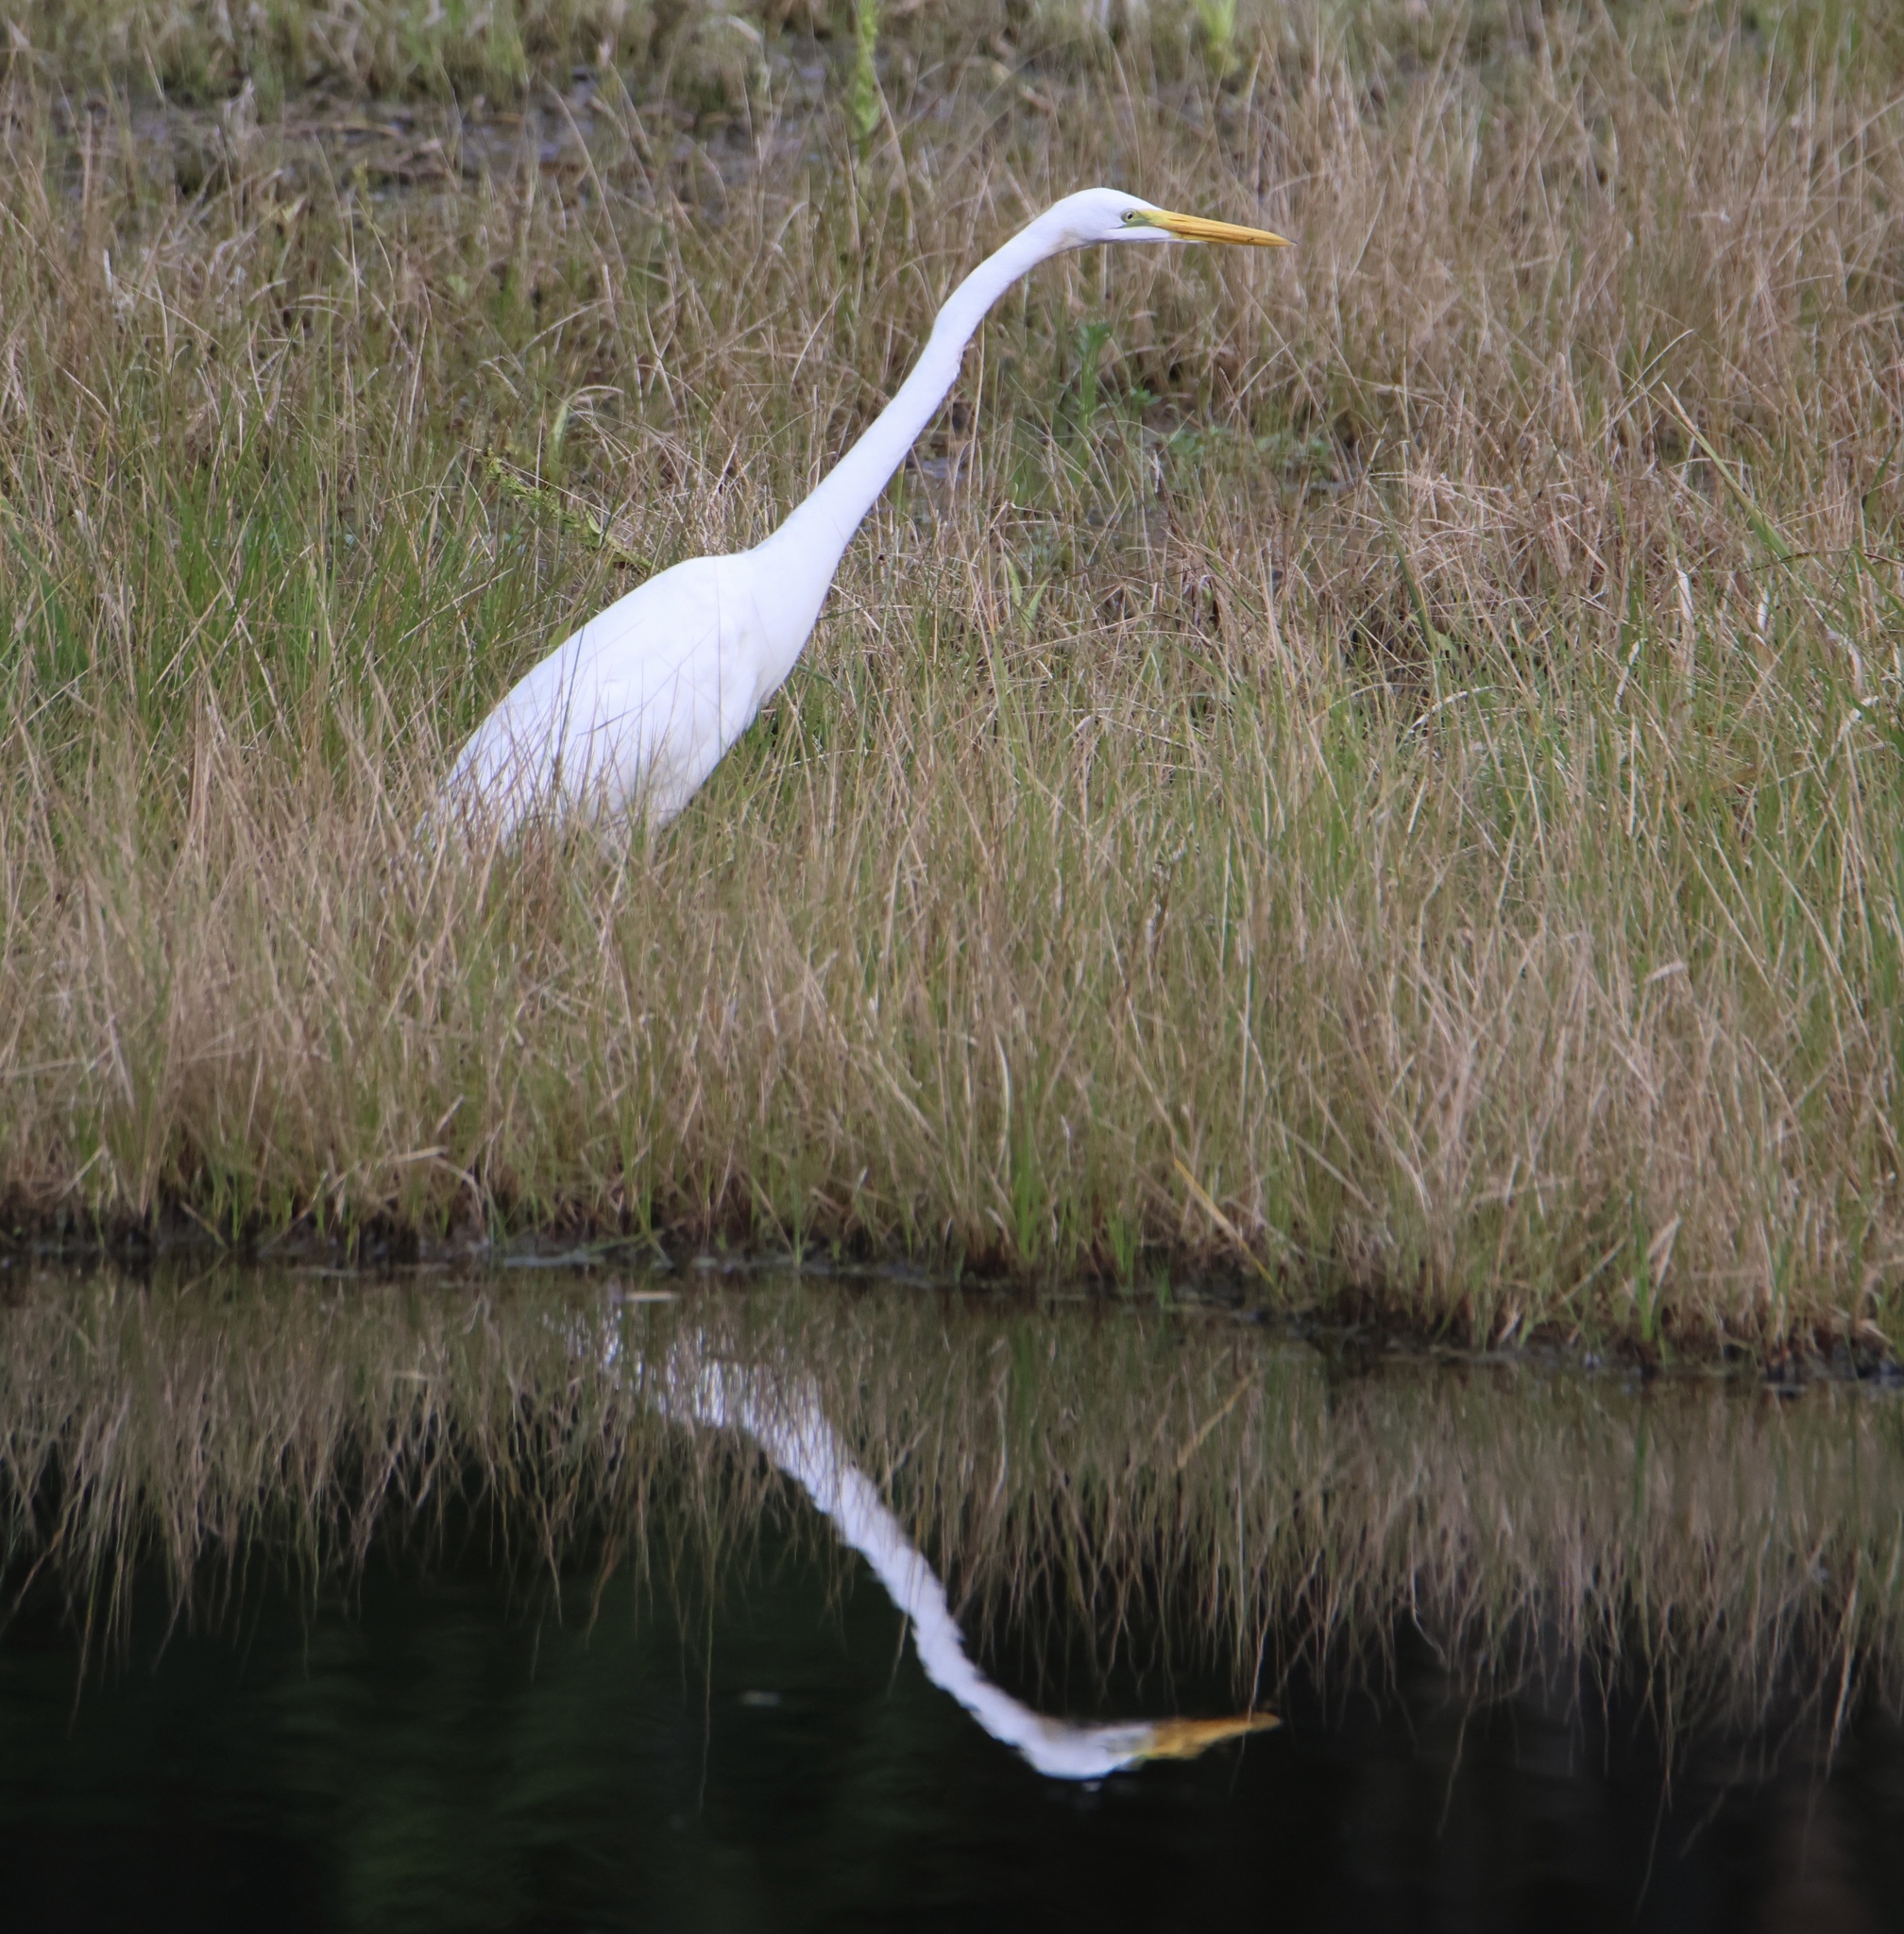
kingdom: Animalia
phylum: Chordata
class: Aves
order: Pelecaniformes
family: Ardeidae
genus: Ardea
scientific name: Ardea alba
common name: Great egret
